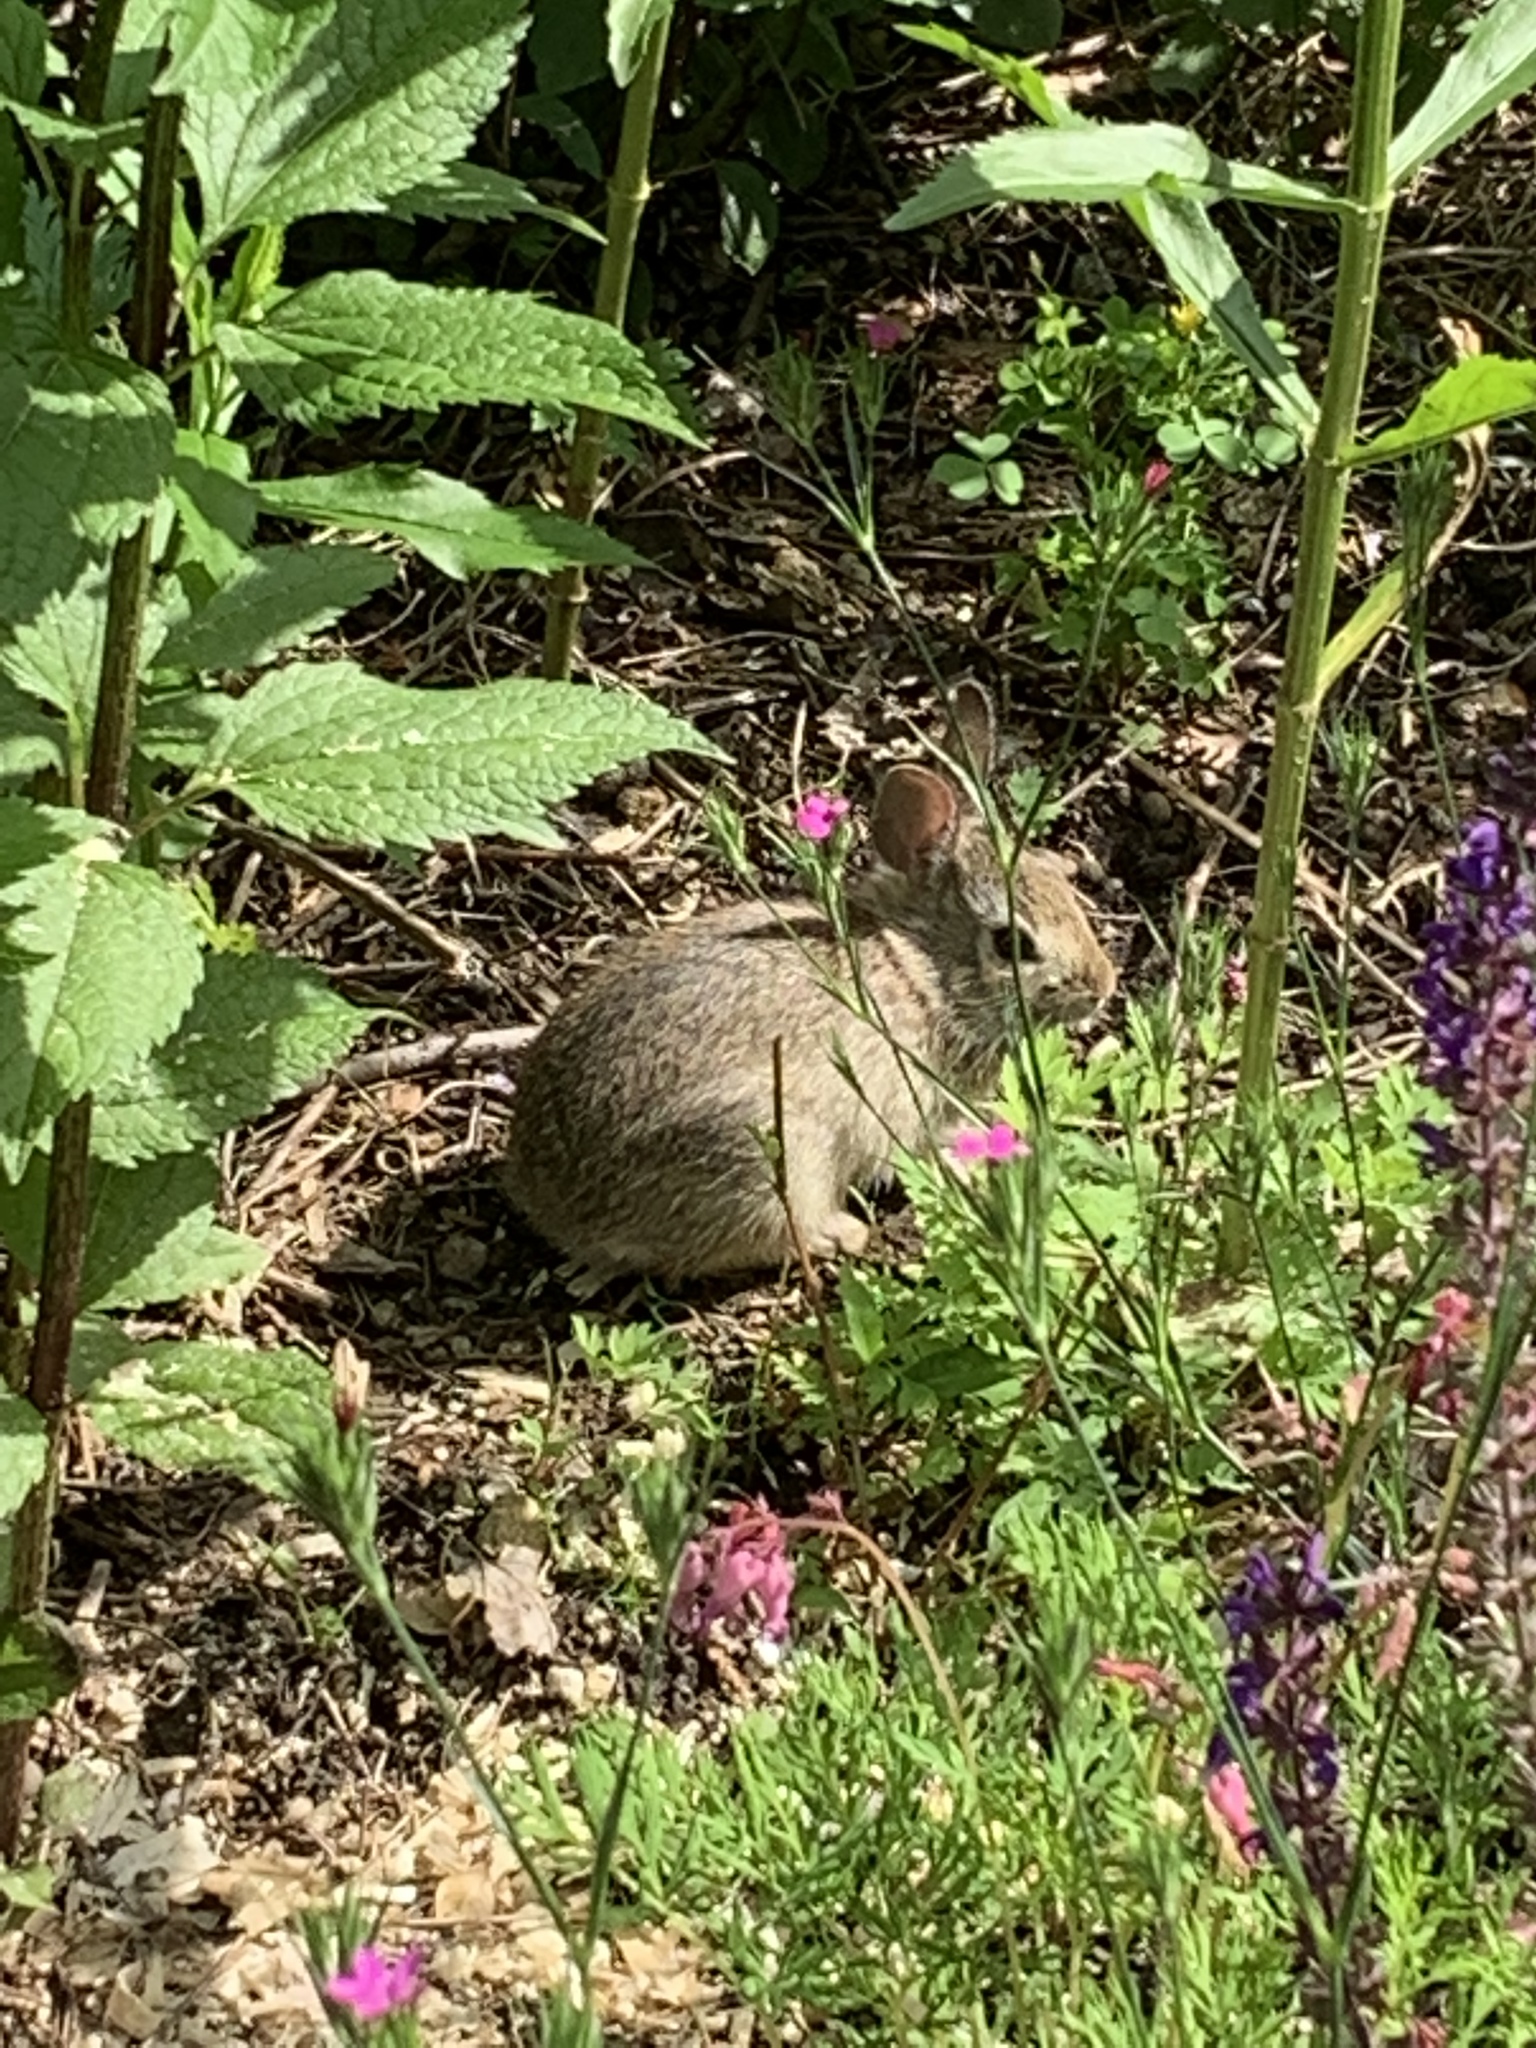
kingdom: Animalia
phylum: Chordata
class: Mammalia
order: Lagomorpha
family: Leporidae
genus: Sylvilagus
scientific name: Sylvilagus floridanus
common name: Eastern cottontail
